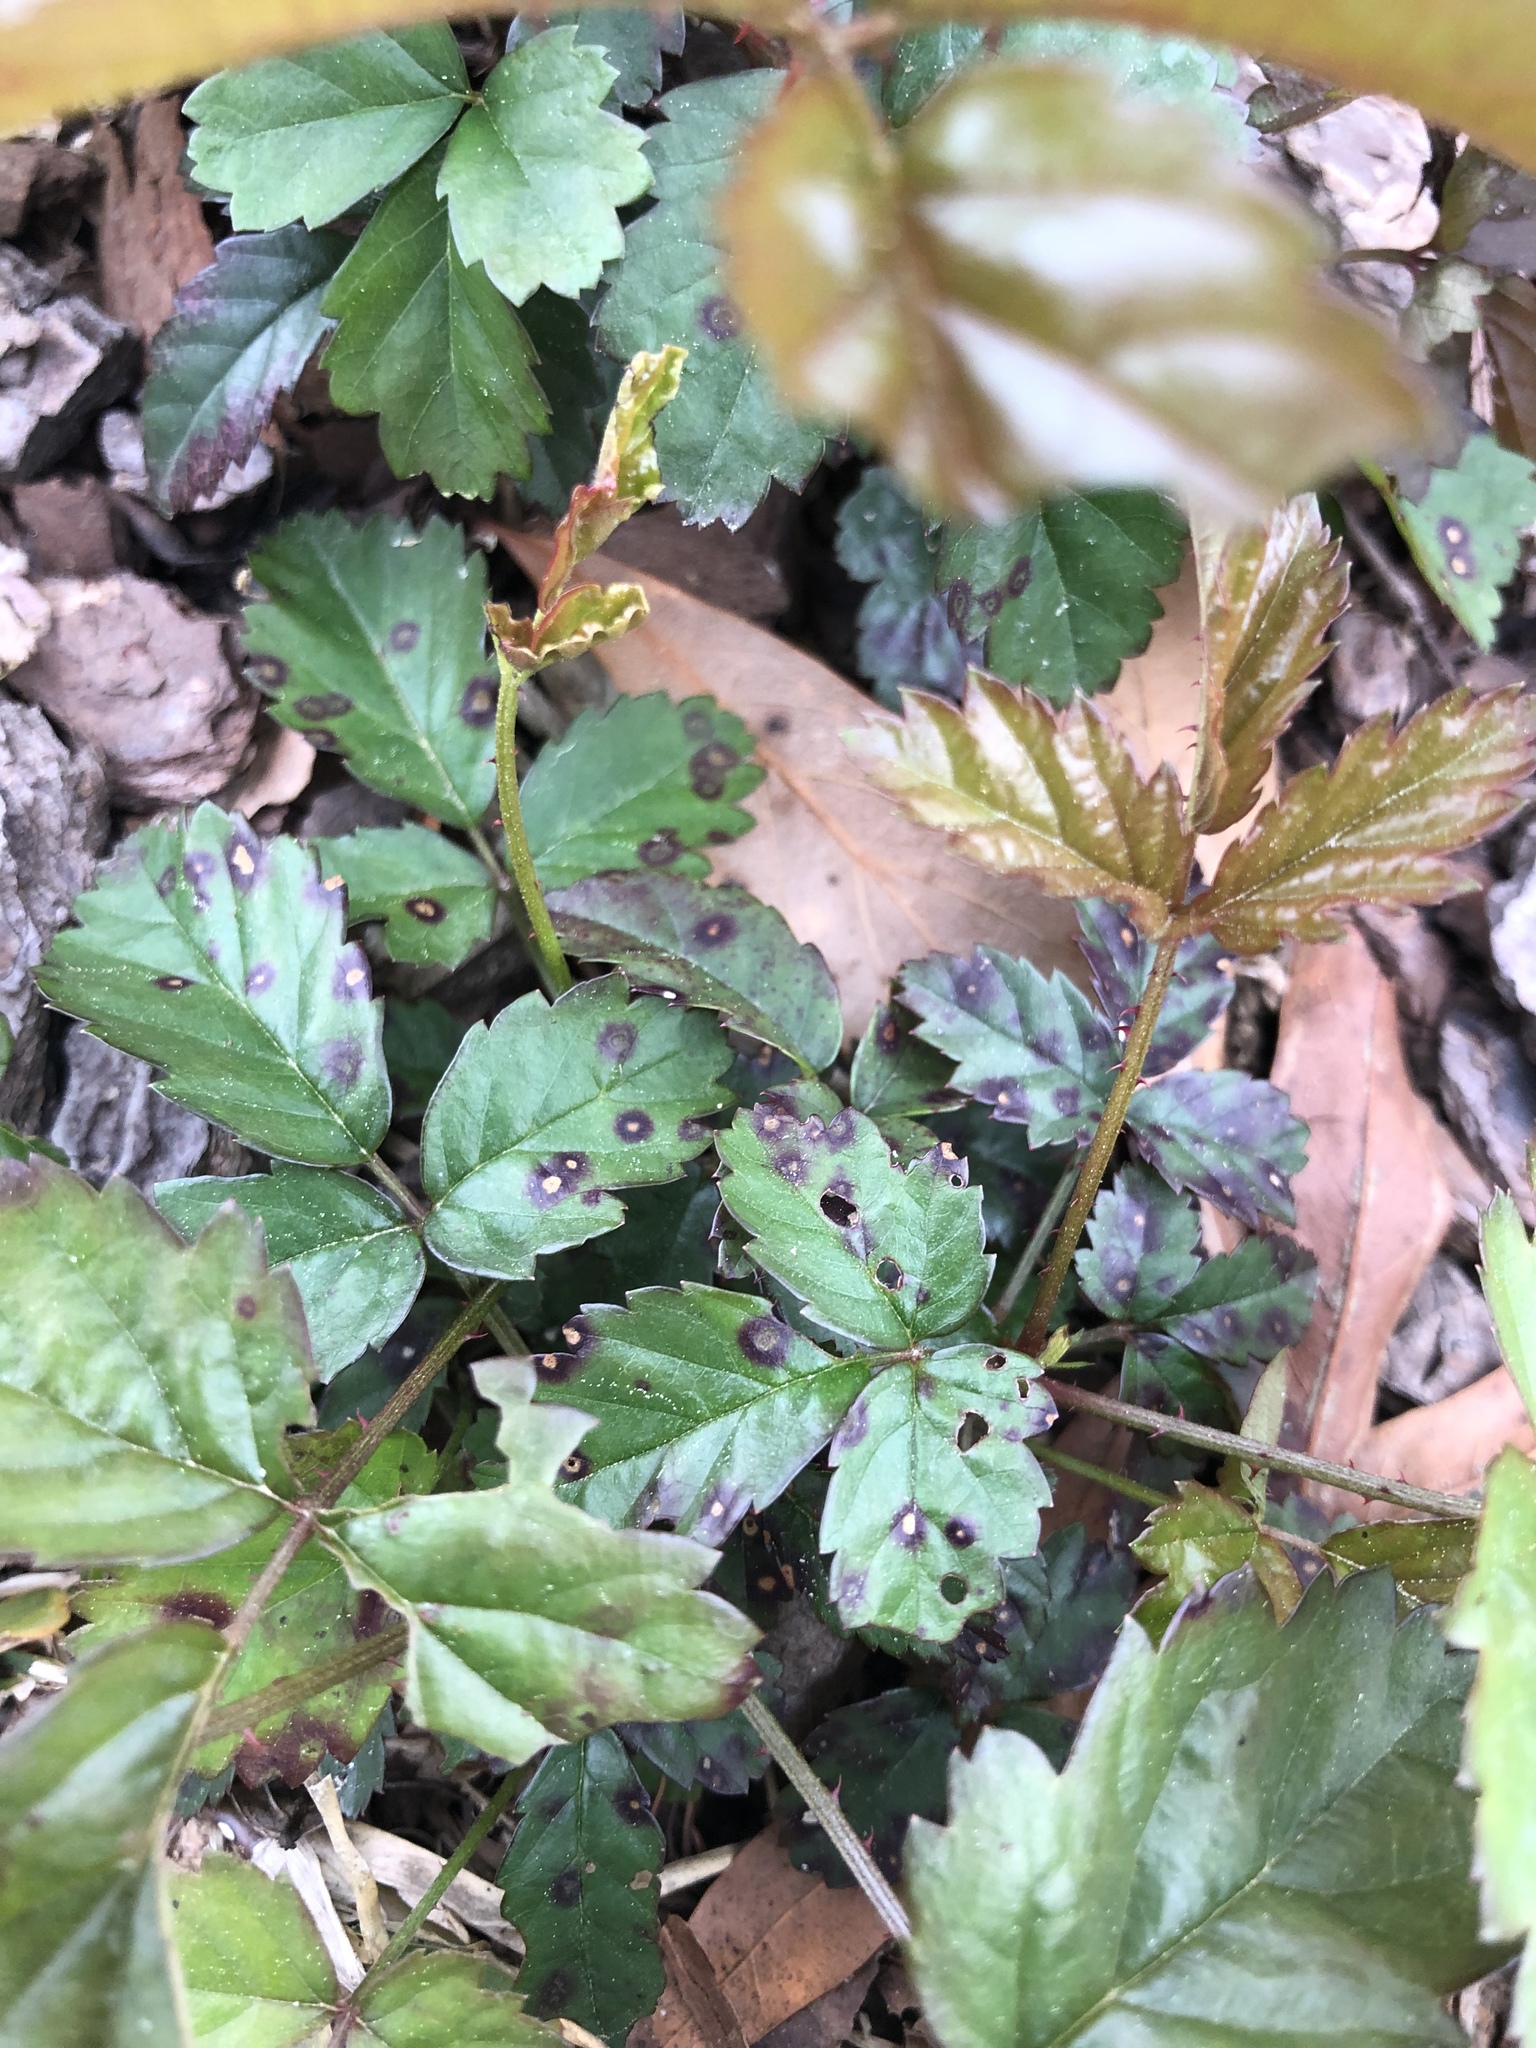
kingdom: Plantae
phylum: Tracheophyta
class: Magnoliopsida
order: Rosales
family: Rosaceae
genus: Rubus
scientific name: Rubus trivialis
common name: Southern dewberry
